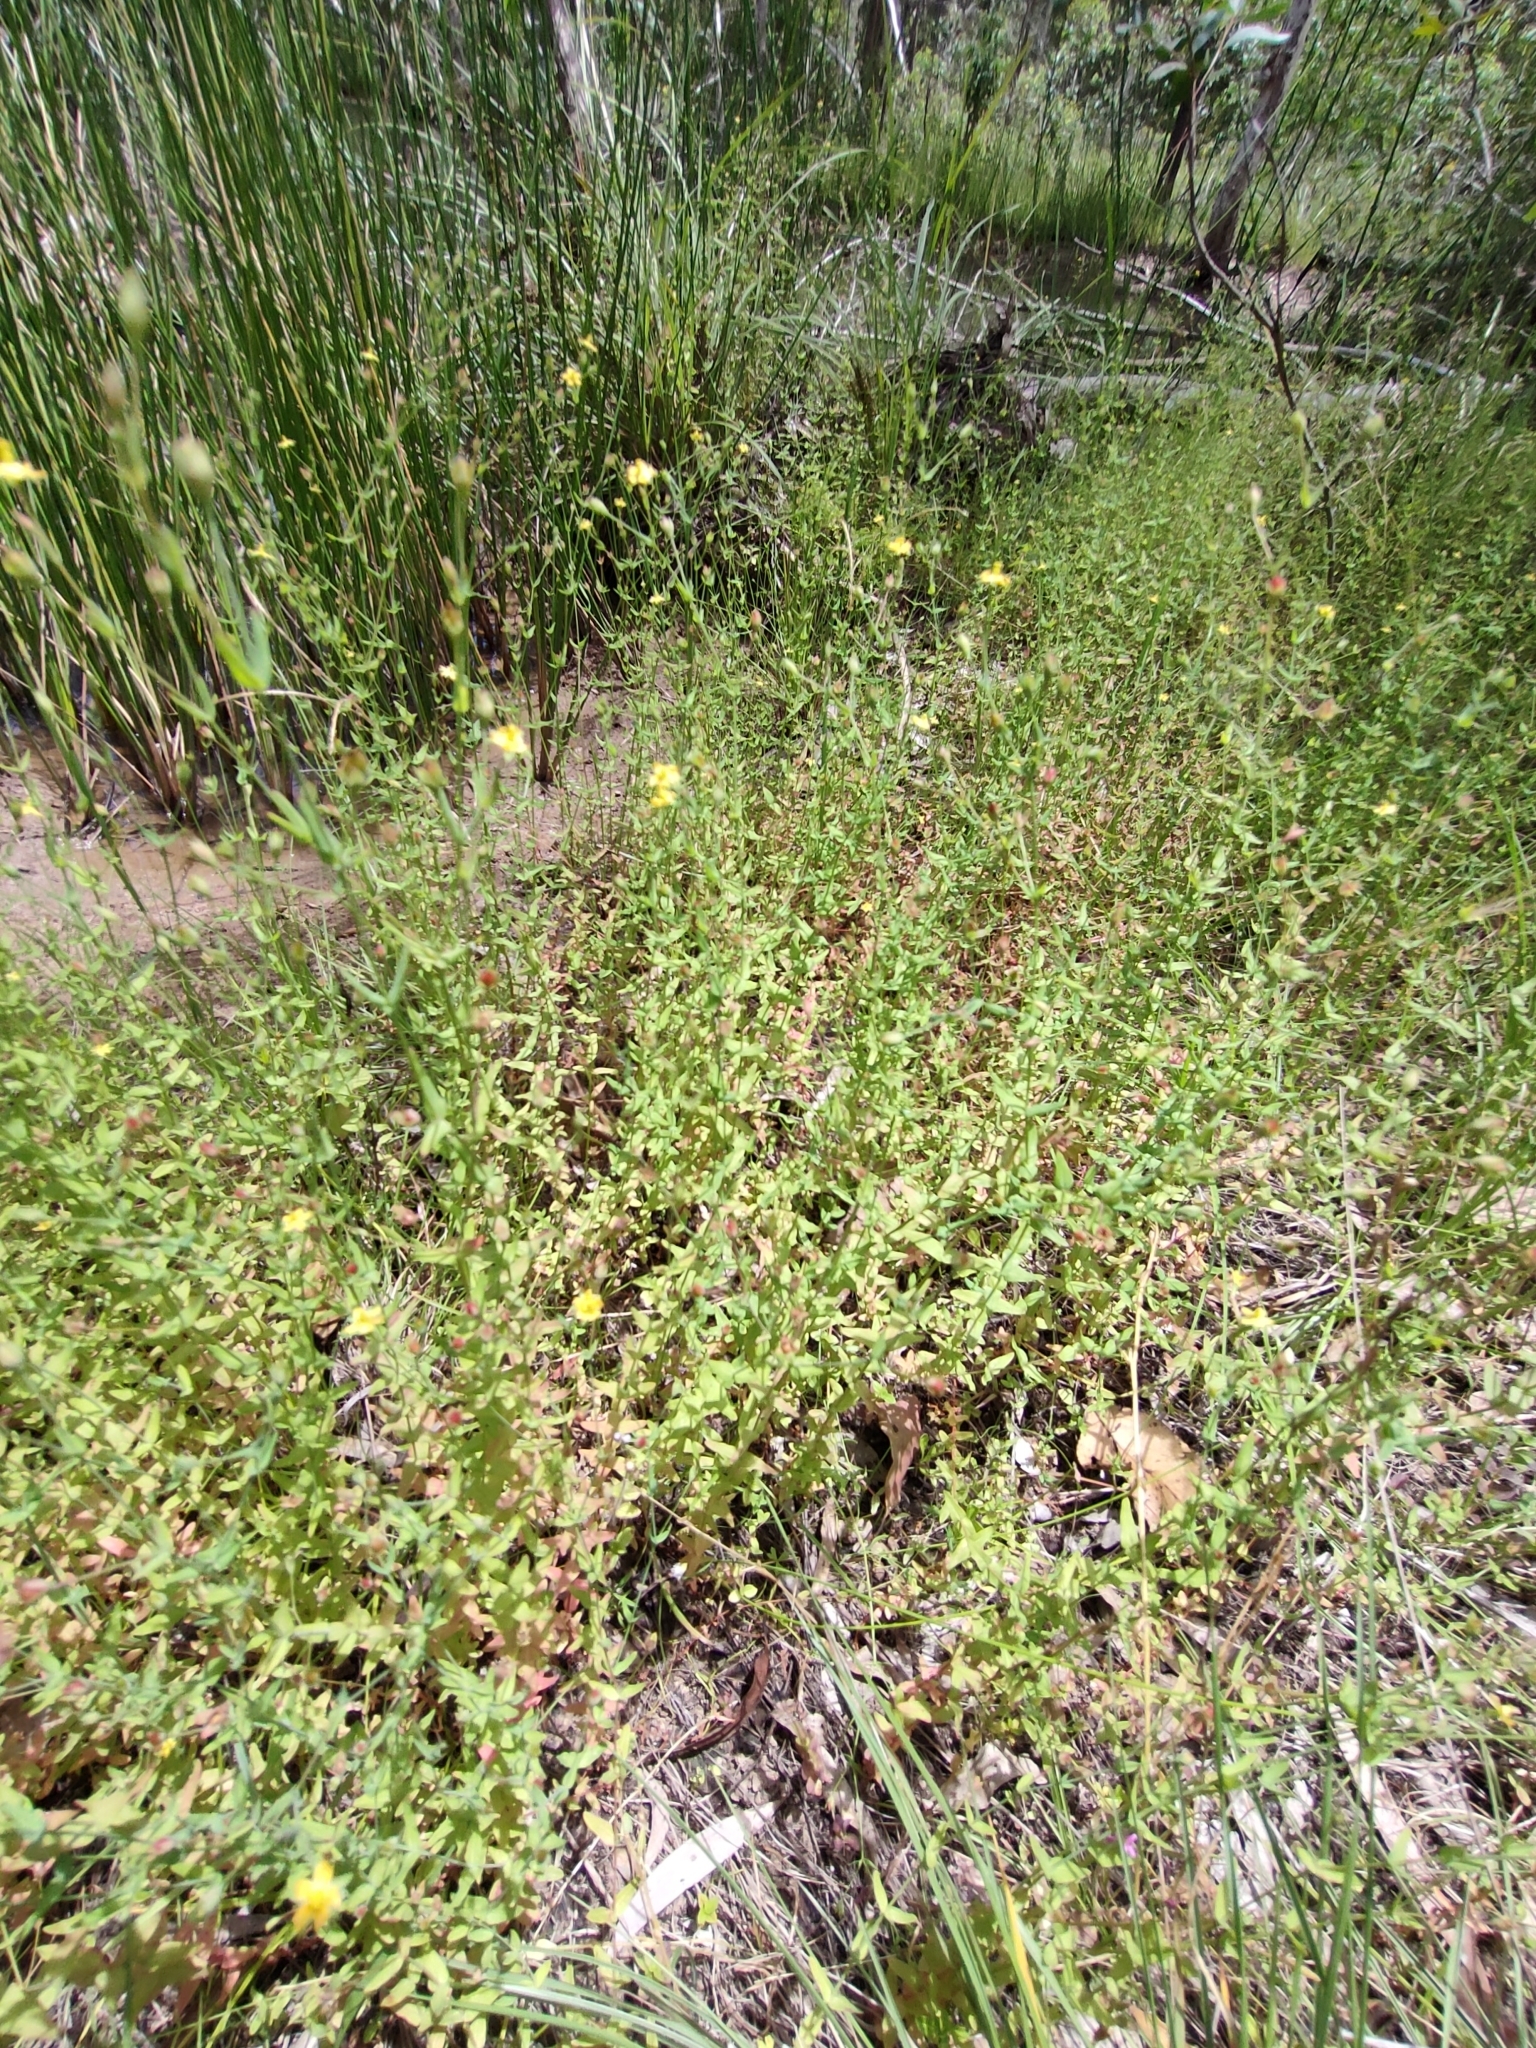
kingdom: Plantae
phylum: Tracheophyta
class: Magnoliopsida
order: Malpighiales
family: Hypericaceae
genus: Hypericum
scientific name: Hypericum gramineum
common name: Grassy st. johnswort
